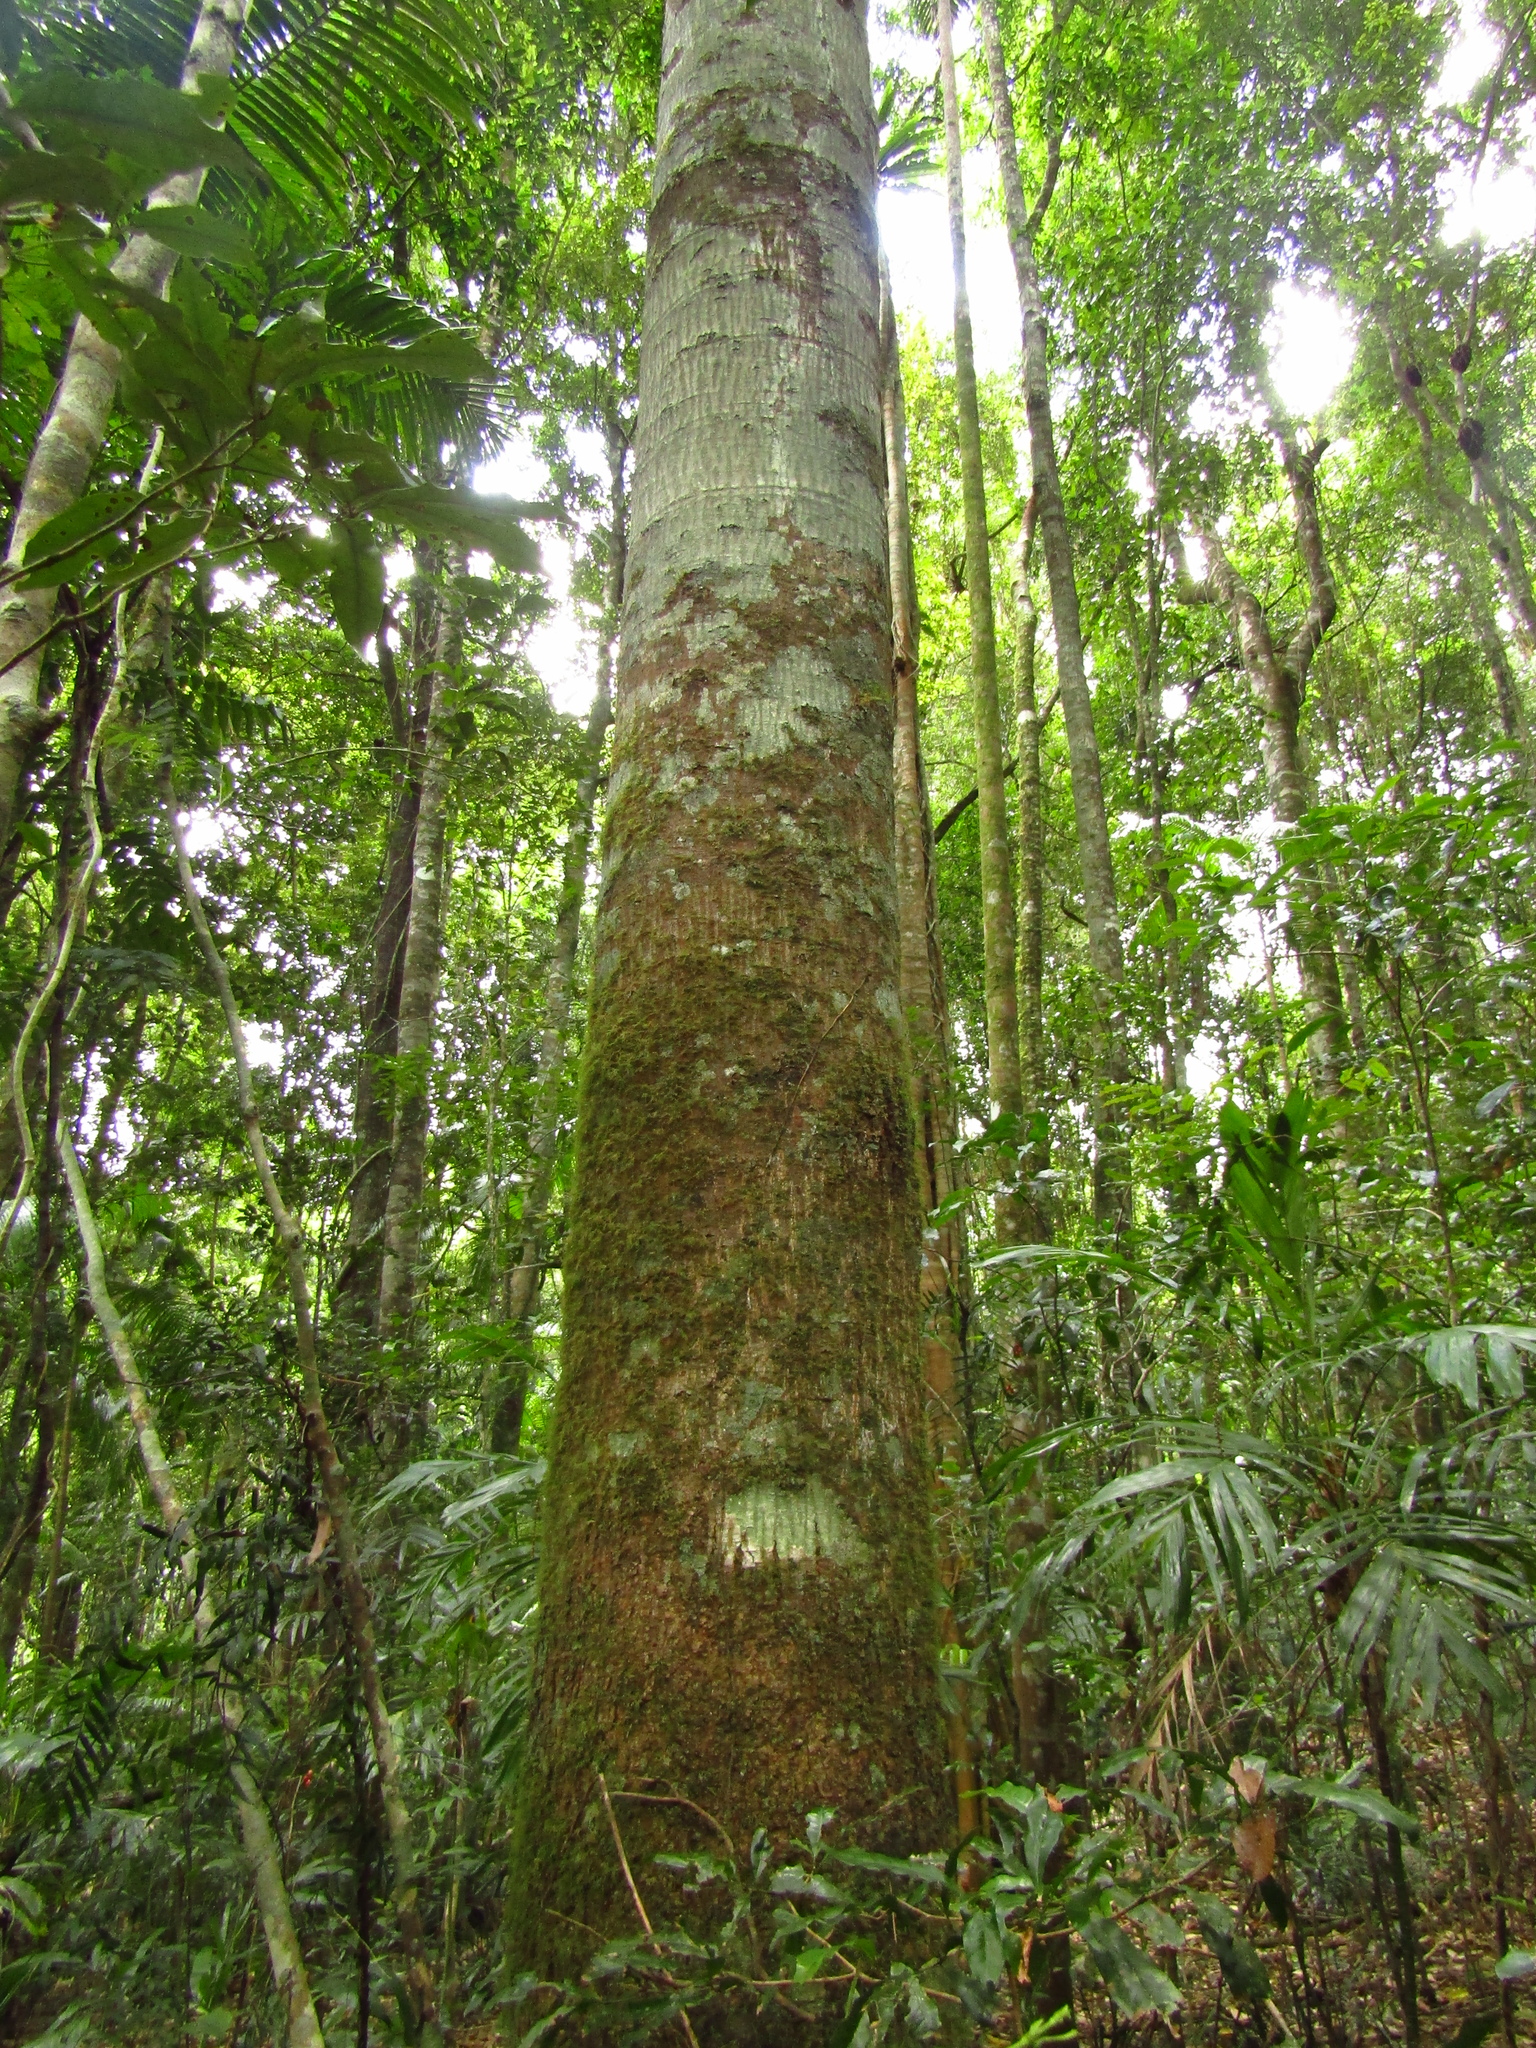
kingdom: Plantae
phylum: Tracheophyta
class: Magnoliopsida
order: Sapindales
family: Meliaceae
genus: Owenia
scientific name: Owenia cepiodora
